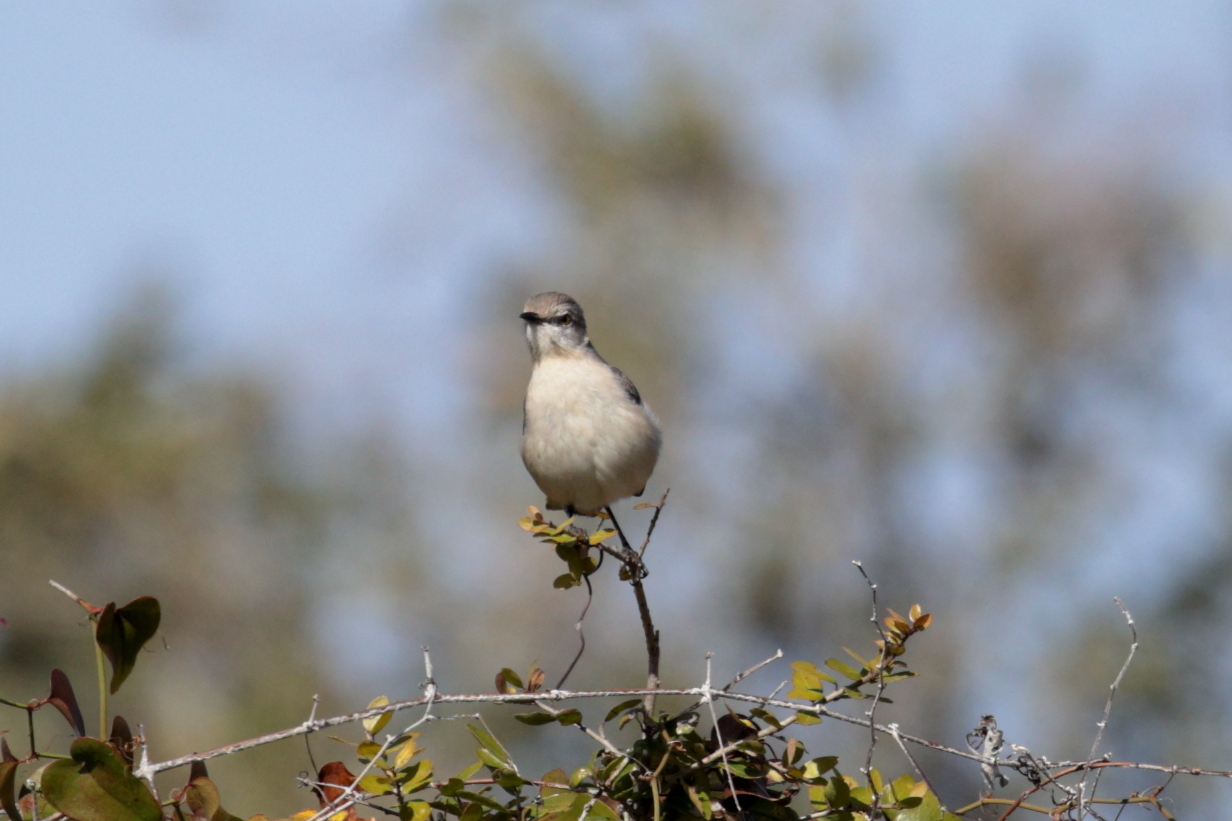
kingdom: Animalia
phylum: Chordata
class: Aves
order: Passeriformes
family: Mimidae
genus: Mimus
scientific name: Mimus polyglottos
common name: Northern mockingbird
